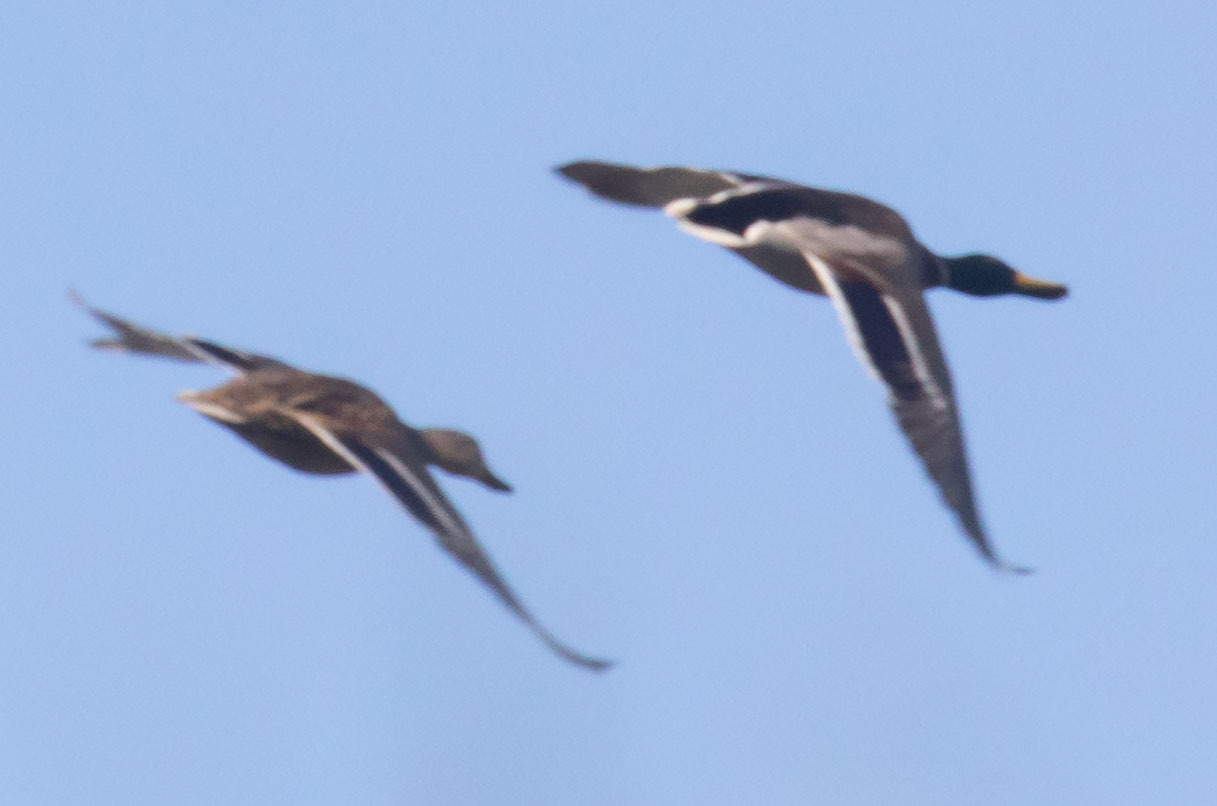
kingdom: Animalia
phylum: Chordata
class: Aves
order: Anseriformes
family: Anatidae
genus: Anas
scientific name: Anas platyrhynchos
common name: Mallard
